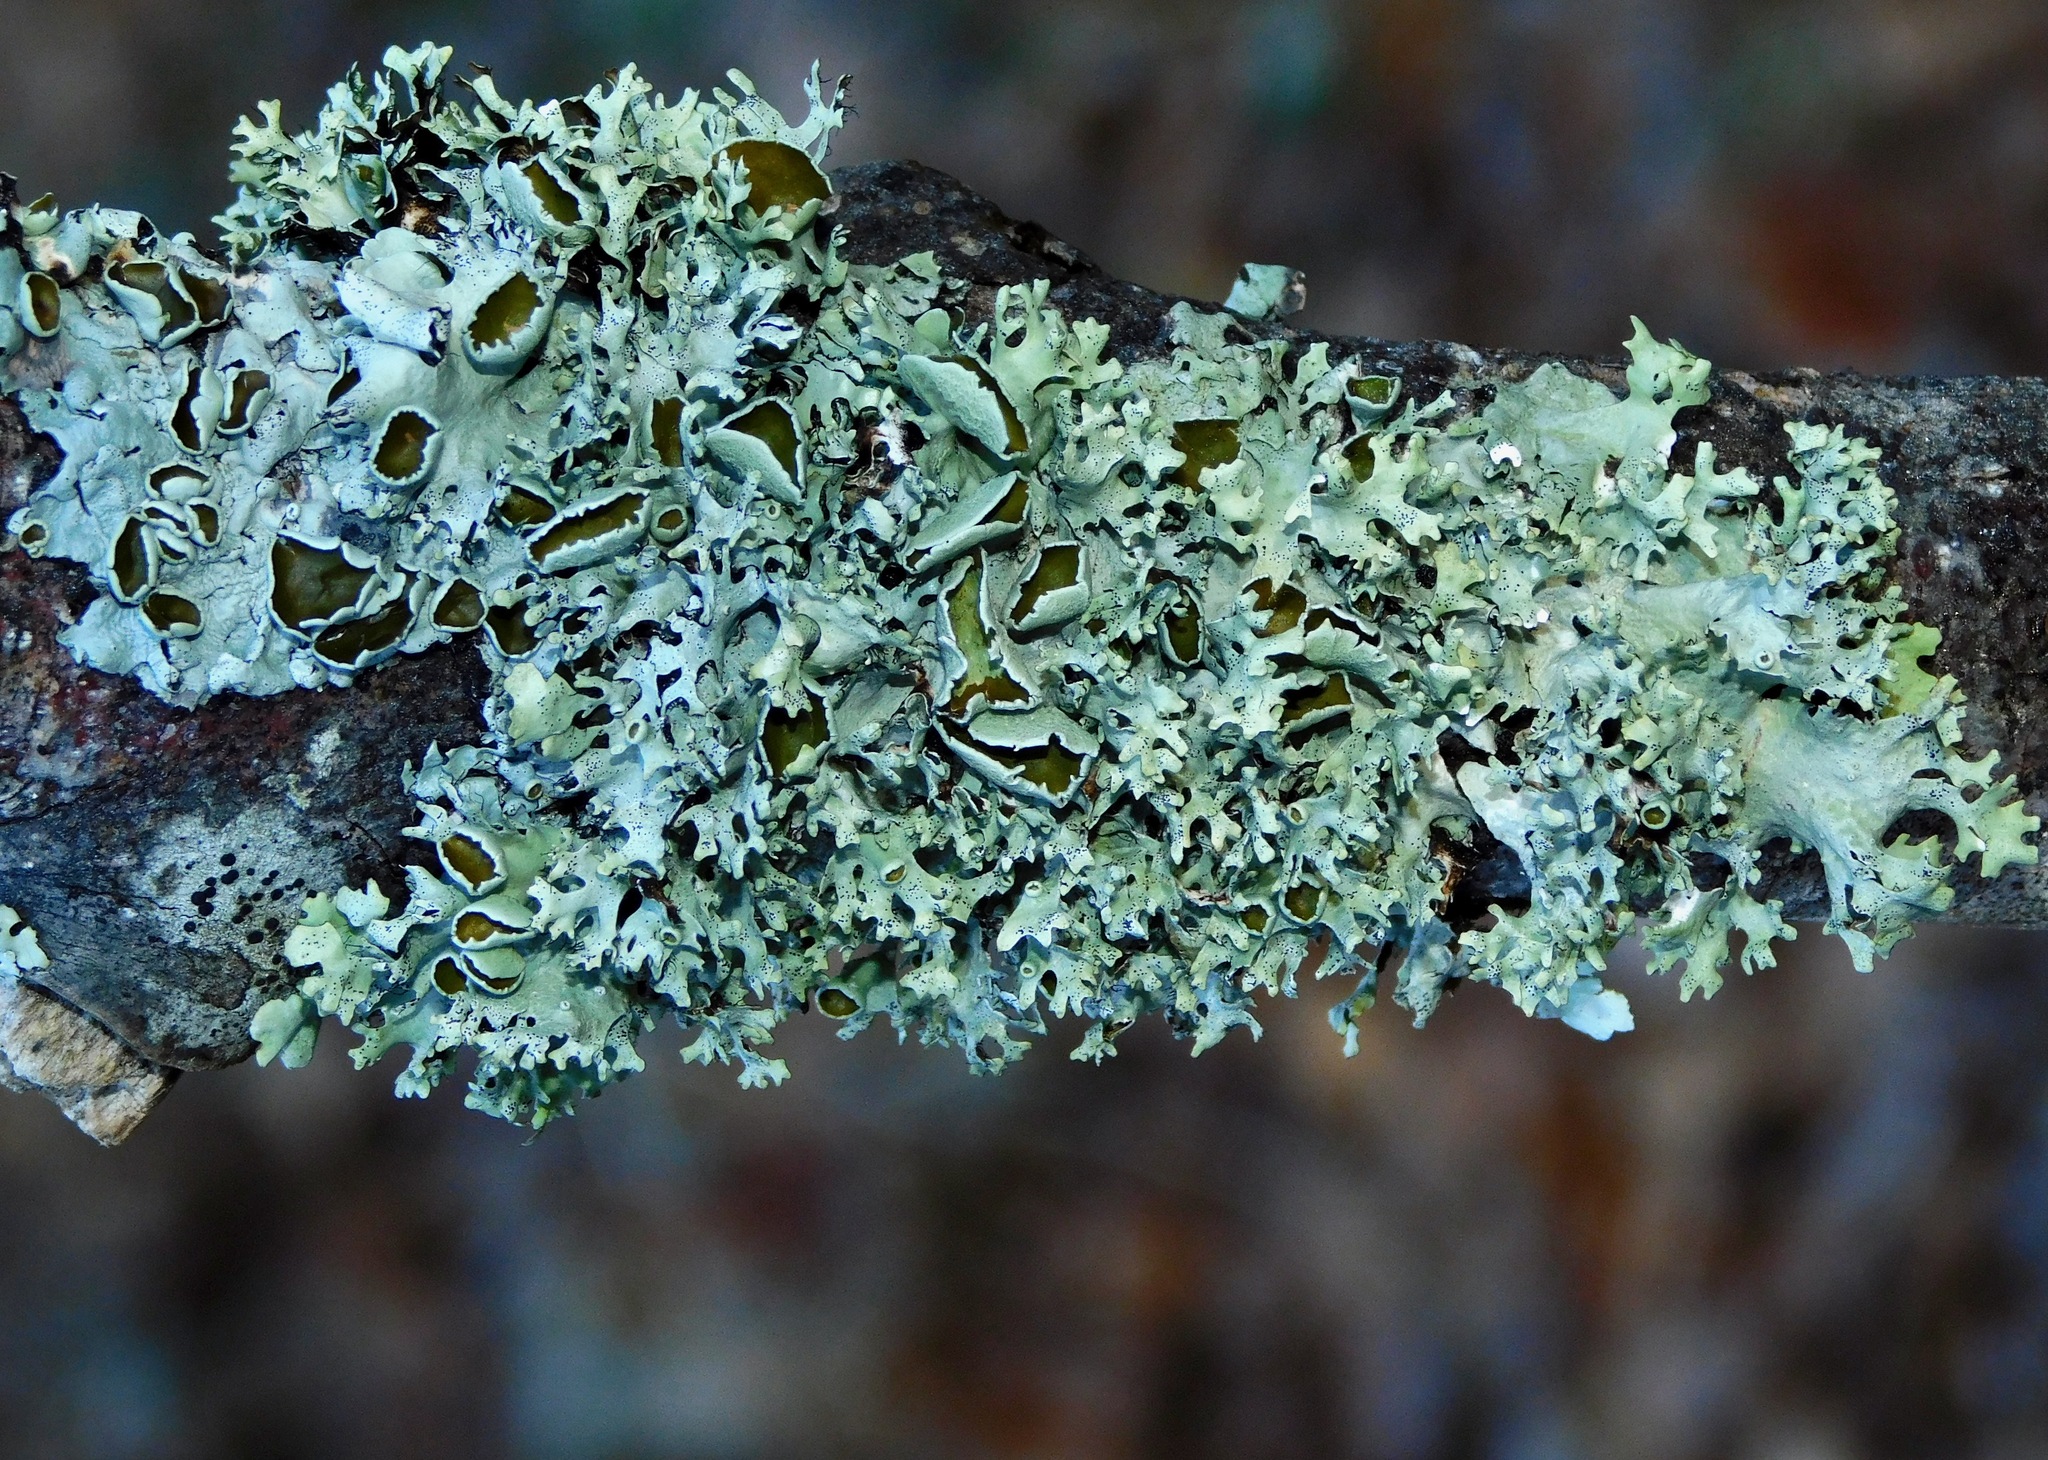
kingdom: Fungi
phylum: Ascomycota
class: Lecanoromycetes
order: Lecanorales
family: Parmeliaceae
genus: Parmotrema
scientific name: Parmotrema cetratum
